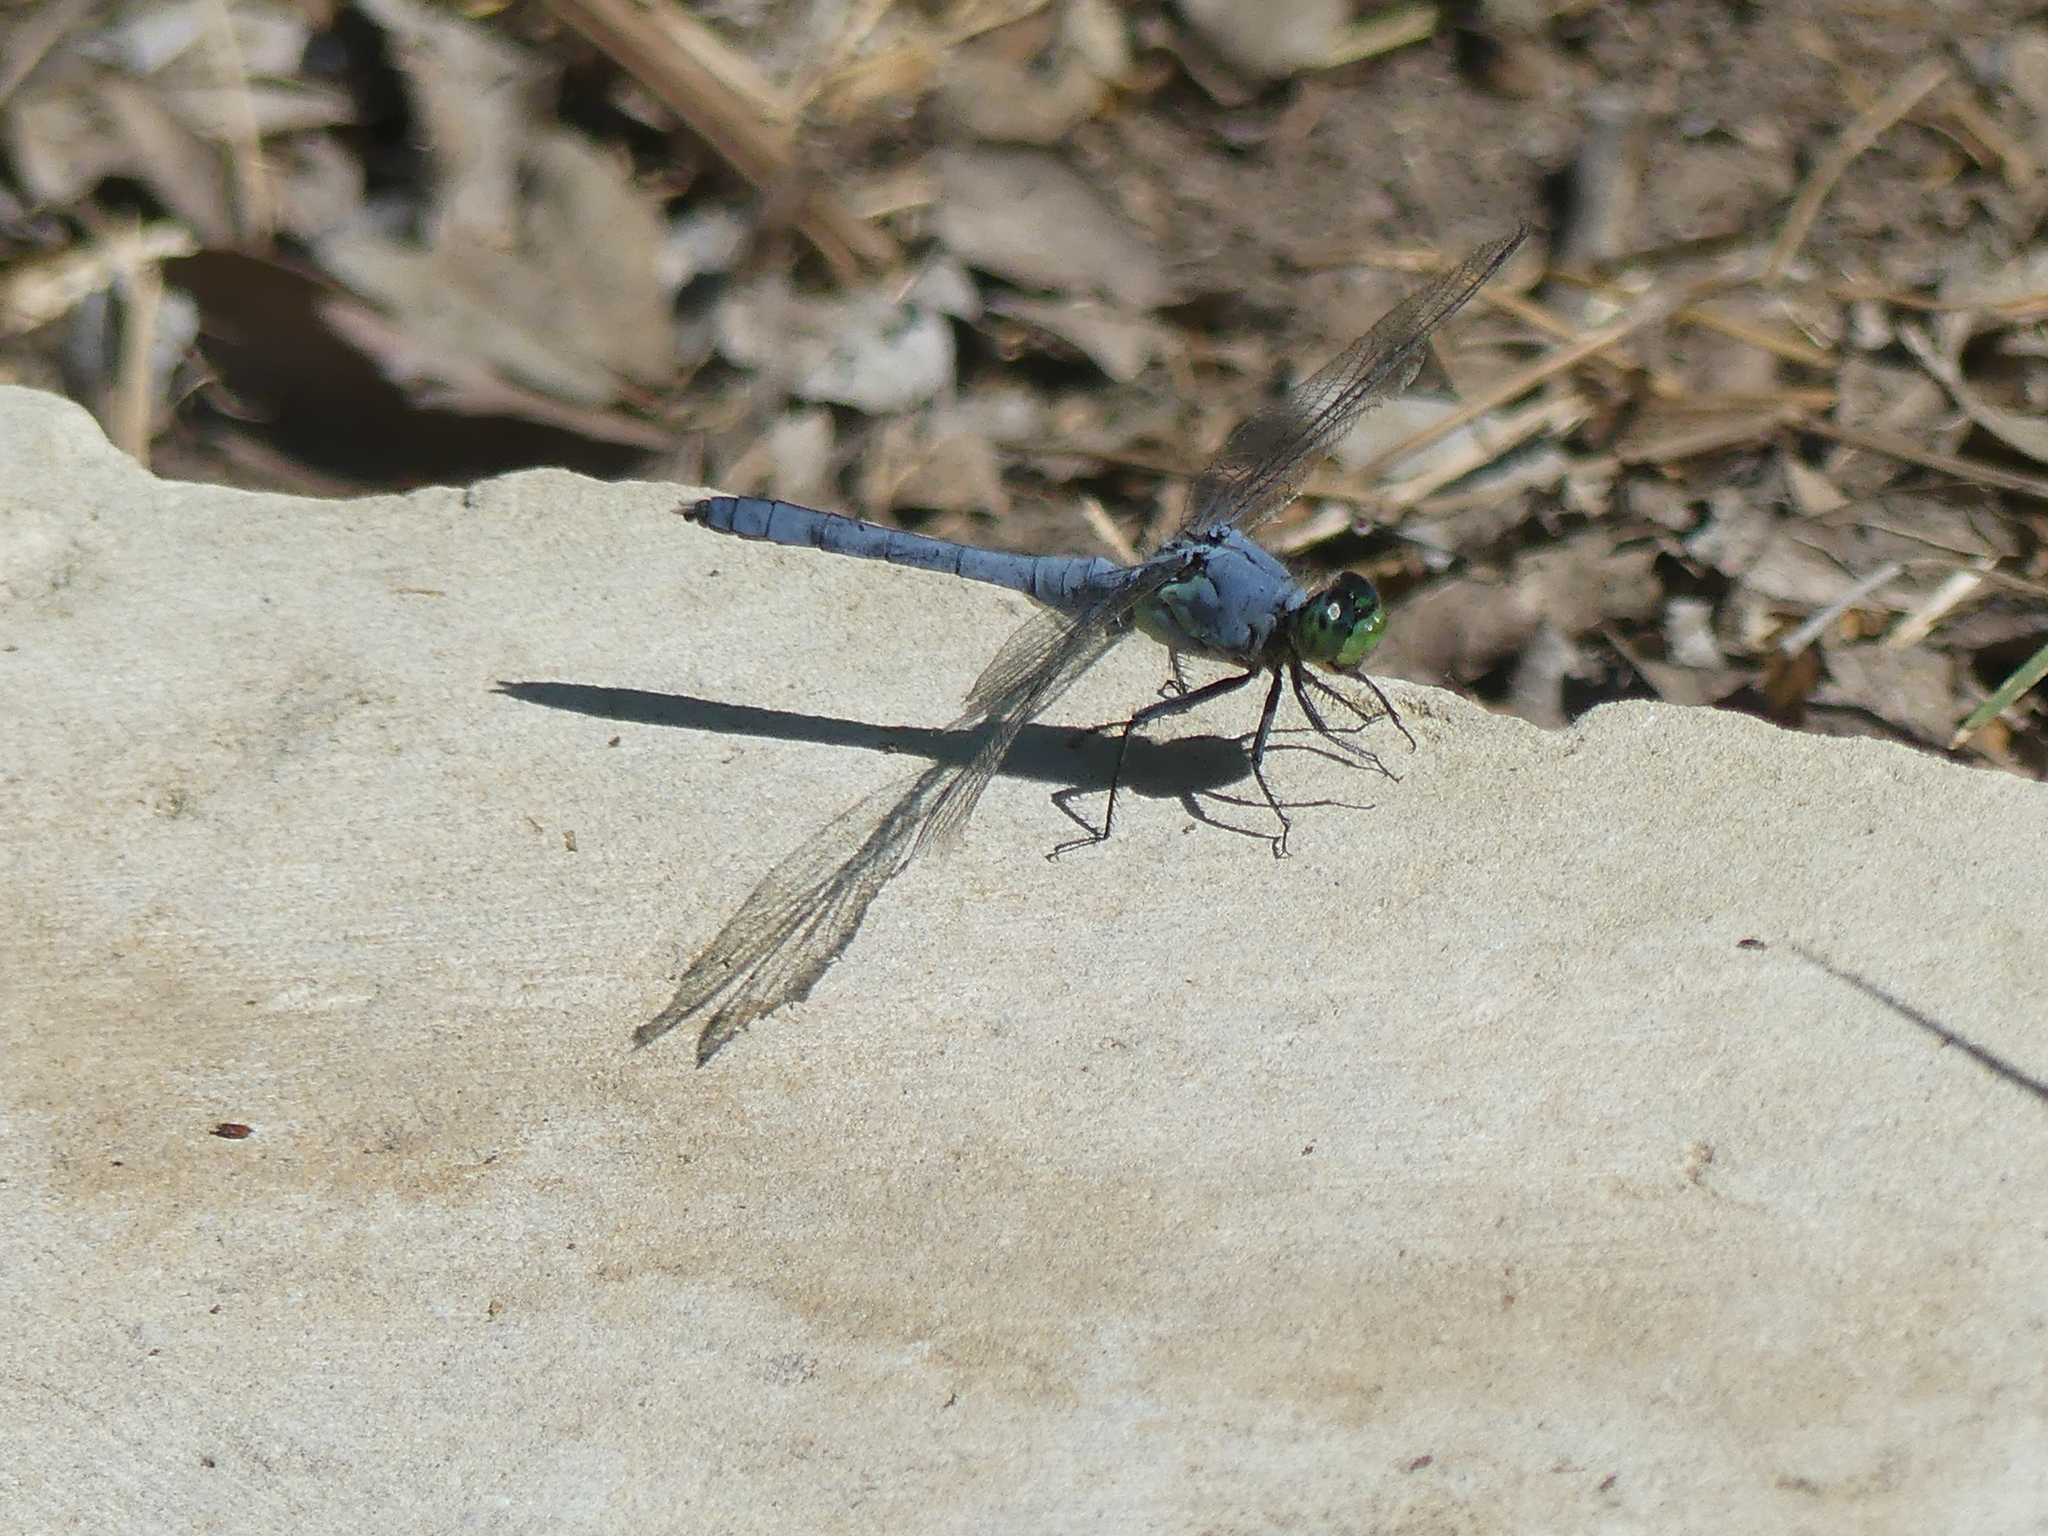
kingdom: Animalia
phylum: Arthropoda
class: Insecta
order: Odonata
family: Libellulidae
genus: Erythemis
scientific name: Erythemis simplicicollis
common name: Eastern pondhawk
